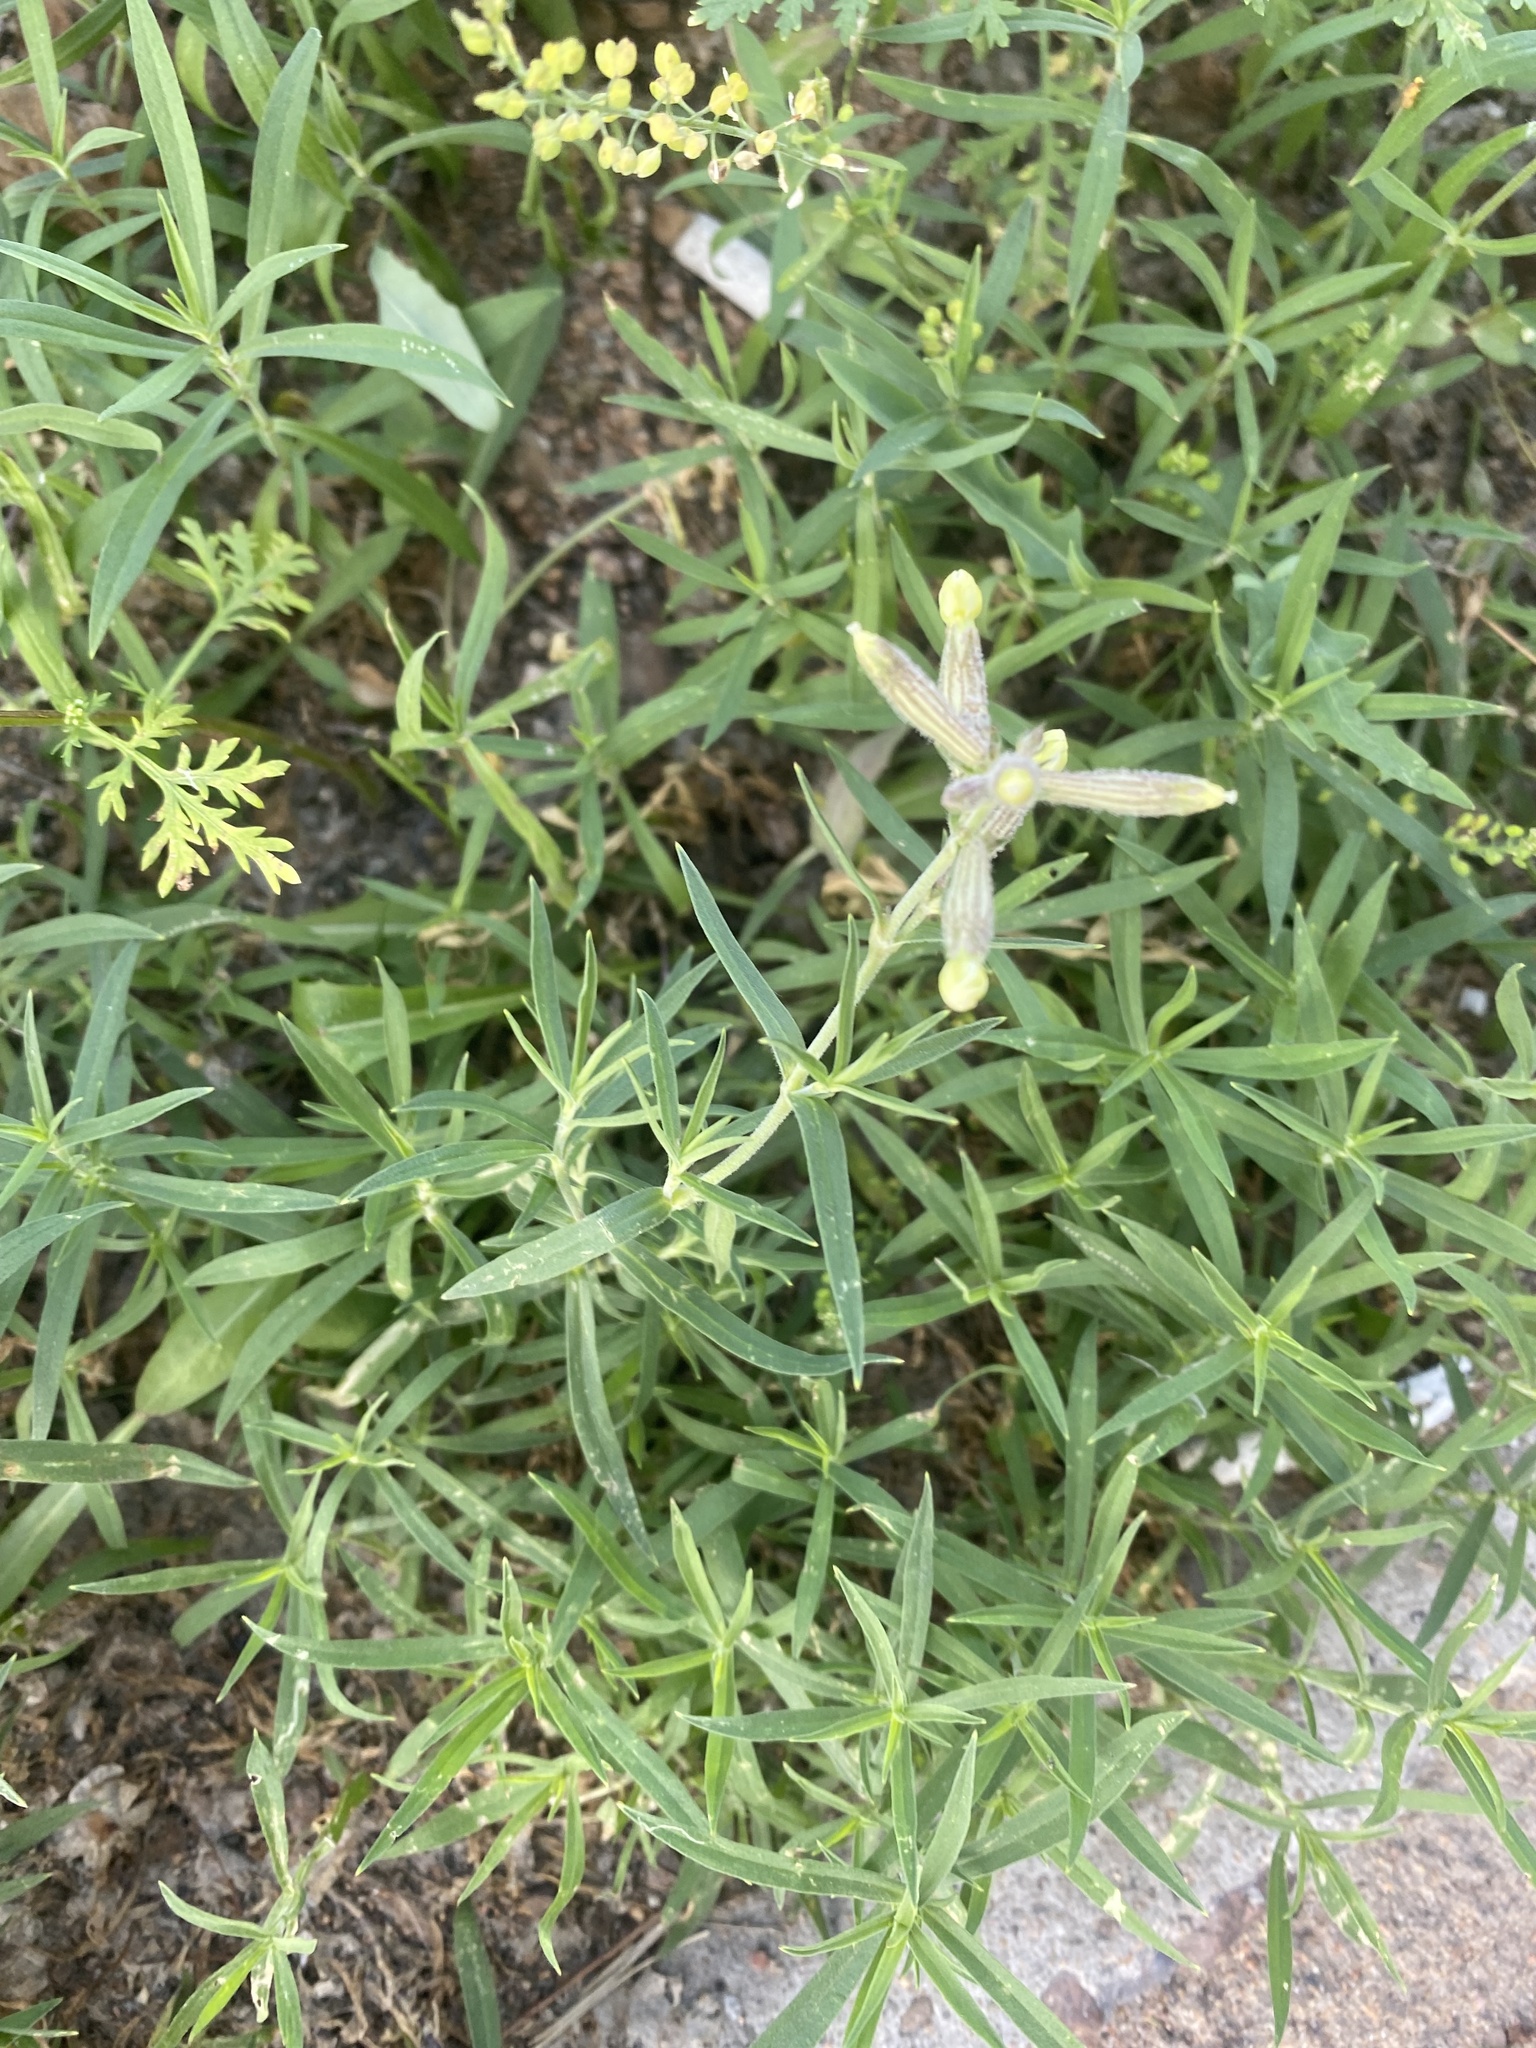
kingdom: Plantae
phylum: Tracheophyta
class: Magnoliopsida
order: Caryophyllales
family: Caryophyllaceae
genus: Silene
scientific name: Silene amoena
